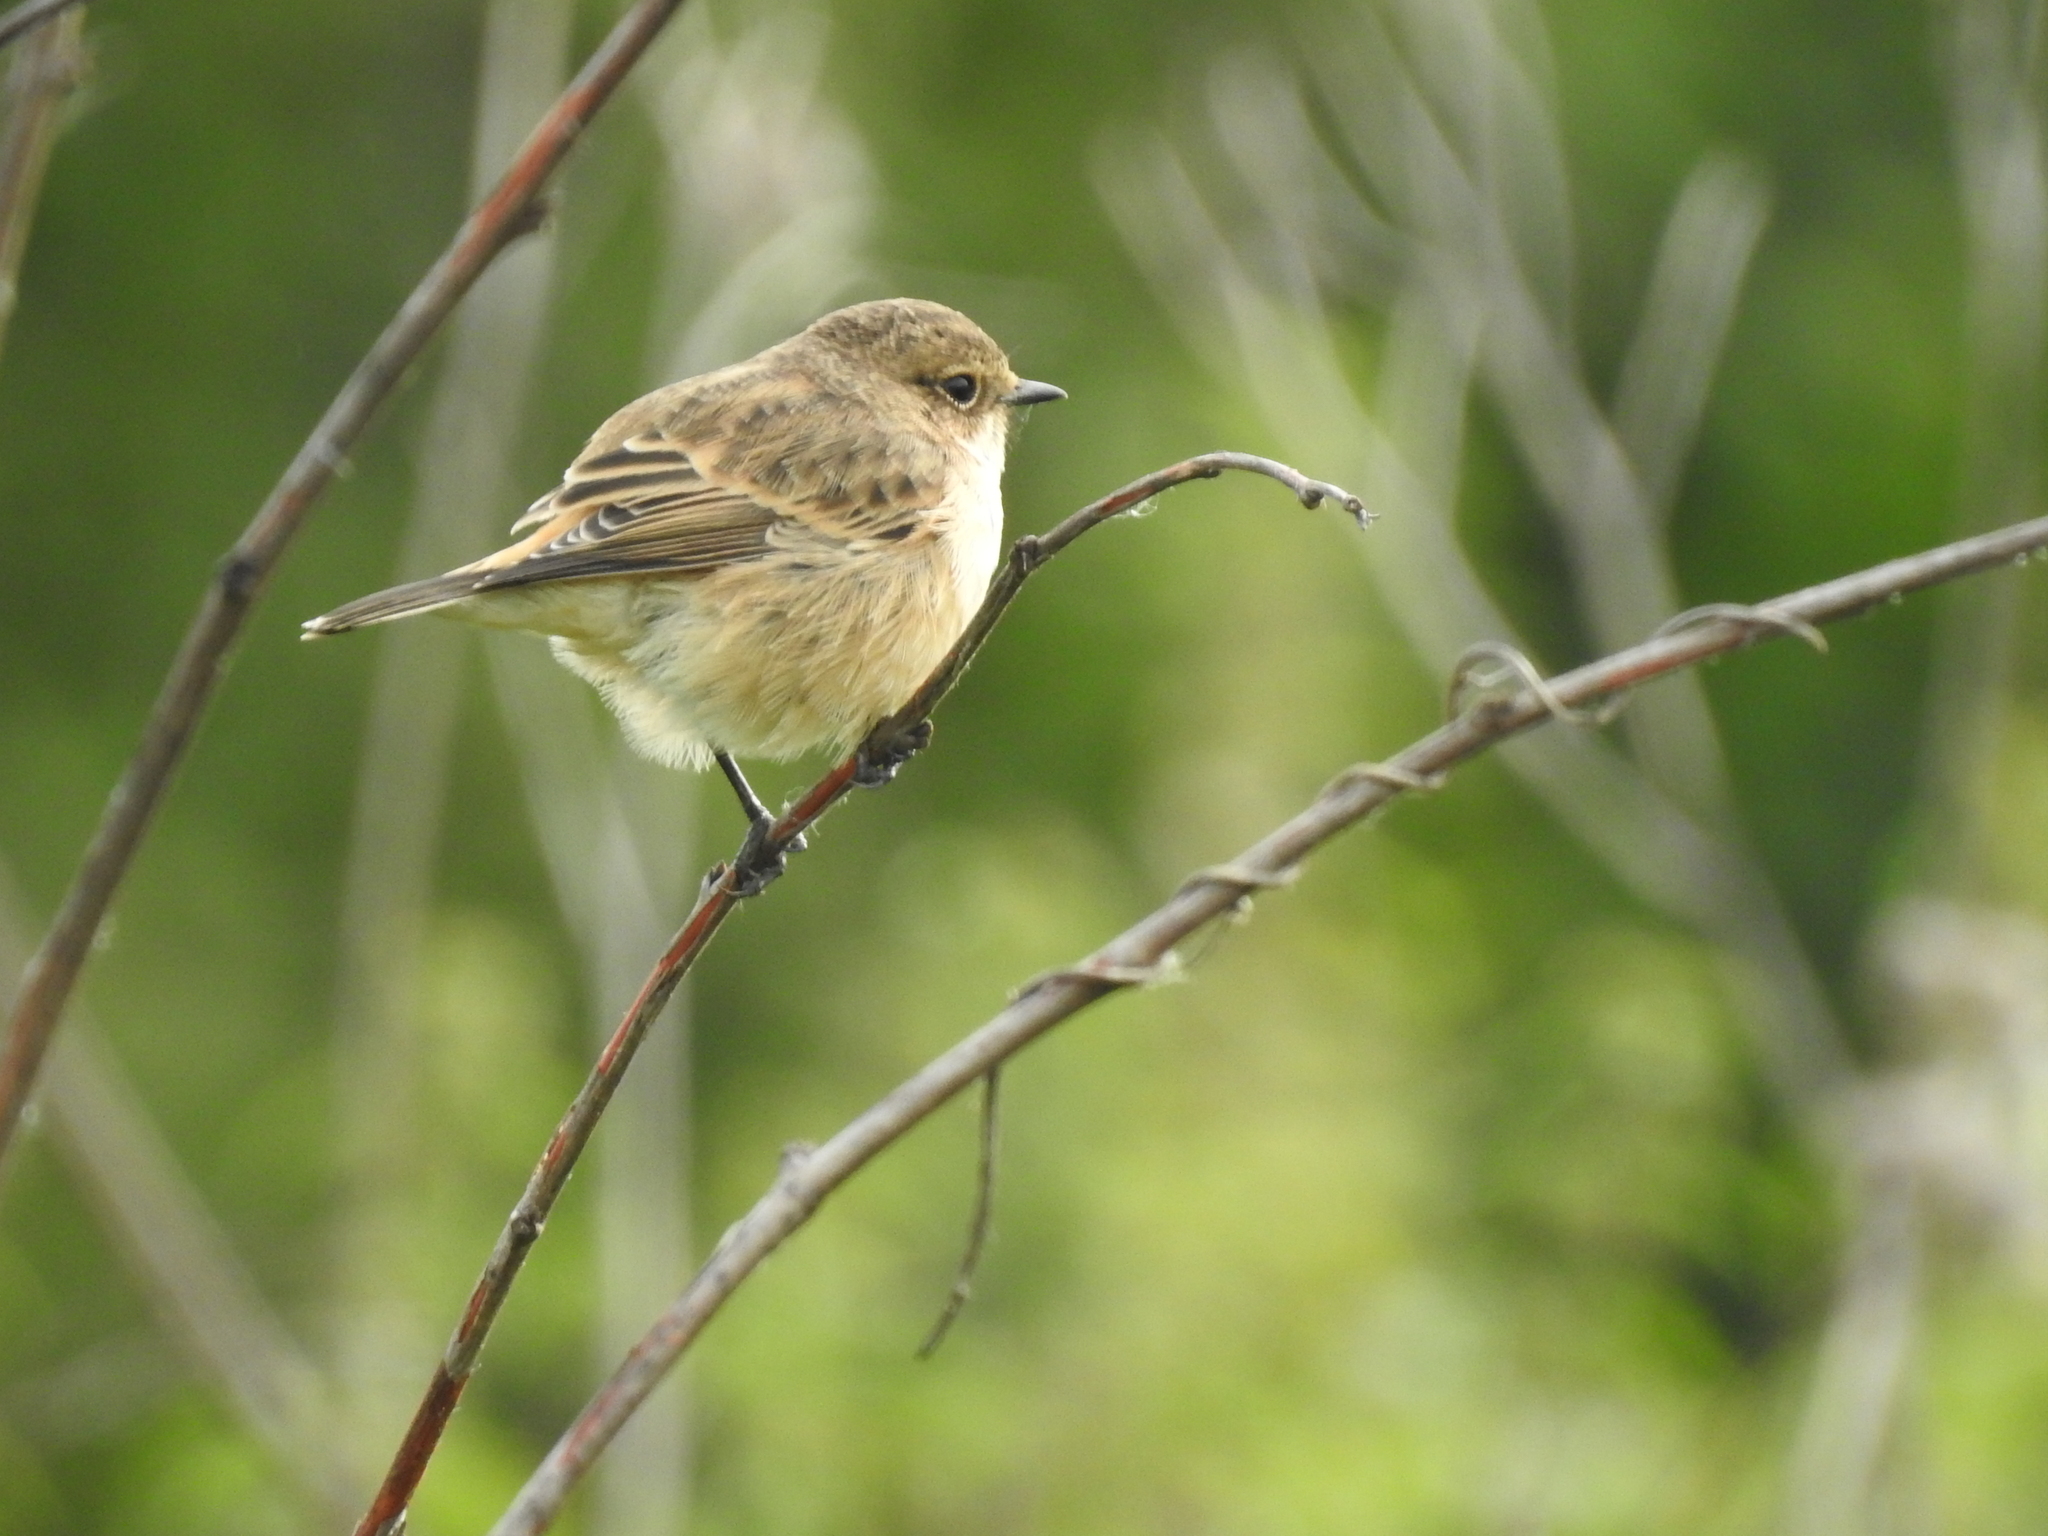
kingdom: Animalia
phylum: Chordata
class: Aves
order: Passeriformes
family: Muscicapidae
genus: Saxicola
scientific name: Saxicola maurus
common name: Siberian stonechat
